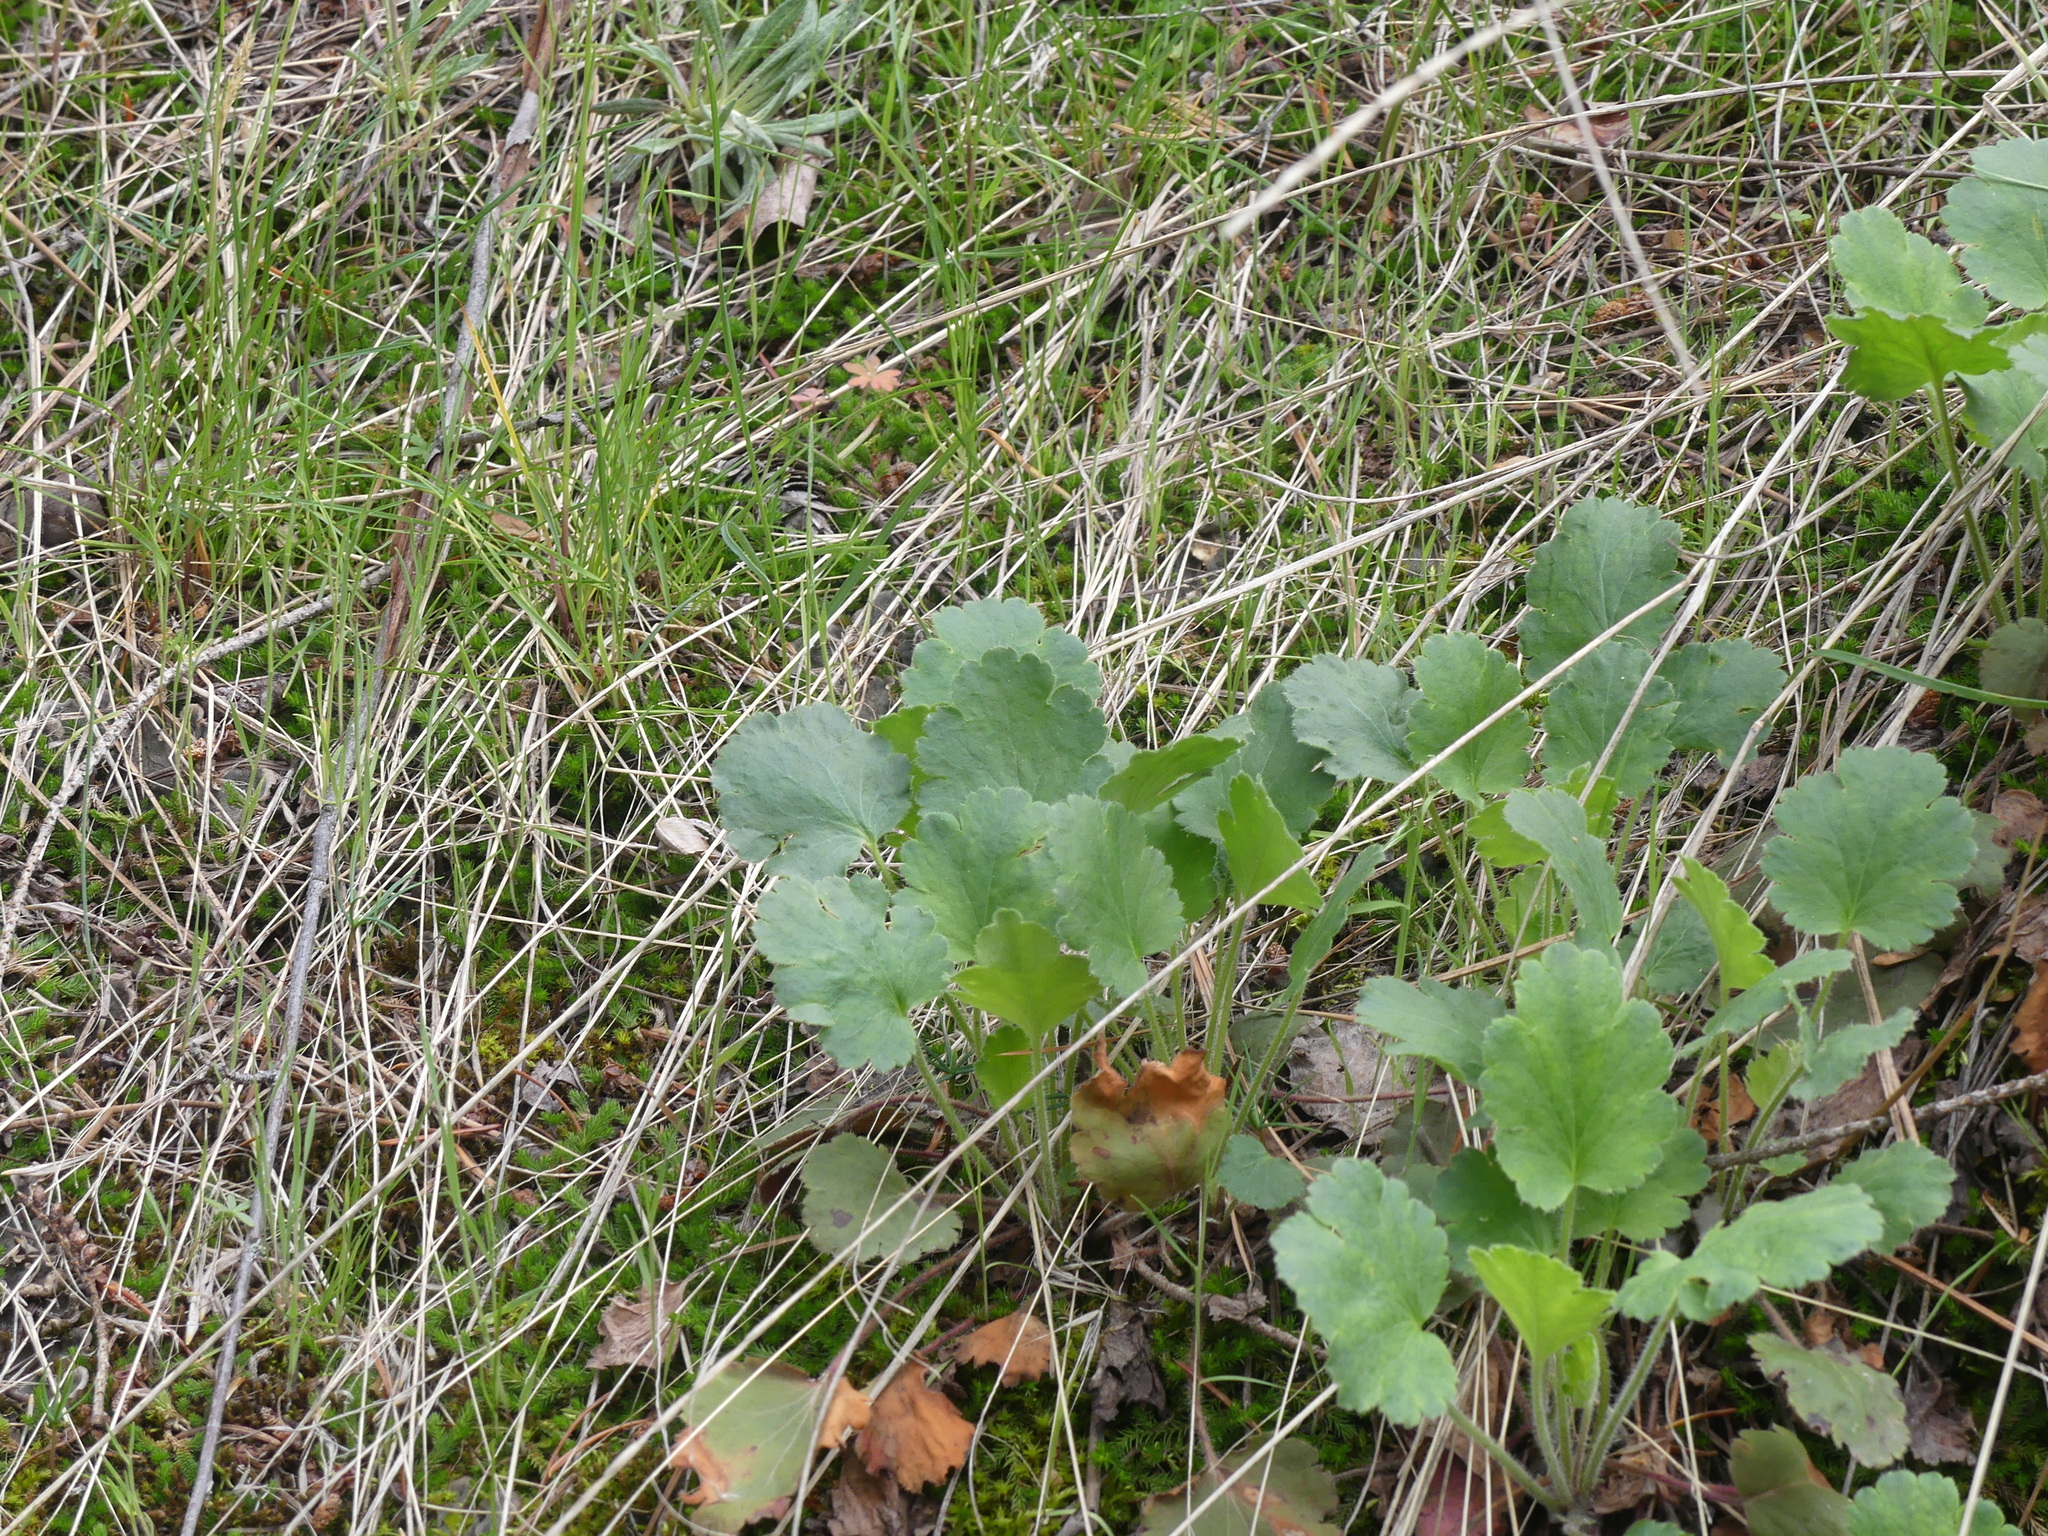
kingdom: Plantae
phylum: Tracheophyta
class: Magnoliopsida
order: Saxifragales
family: Saxifragaceae
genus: Heuchera
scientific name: Heuchera cylindrica
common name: Mat alumroot
